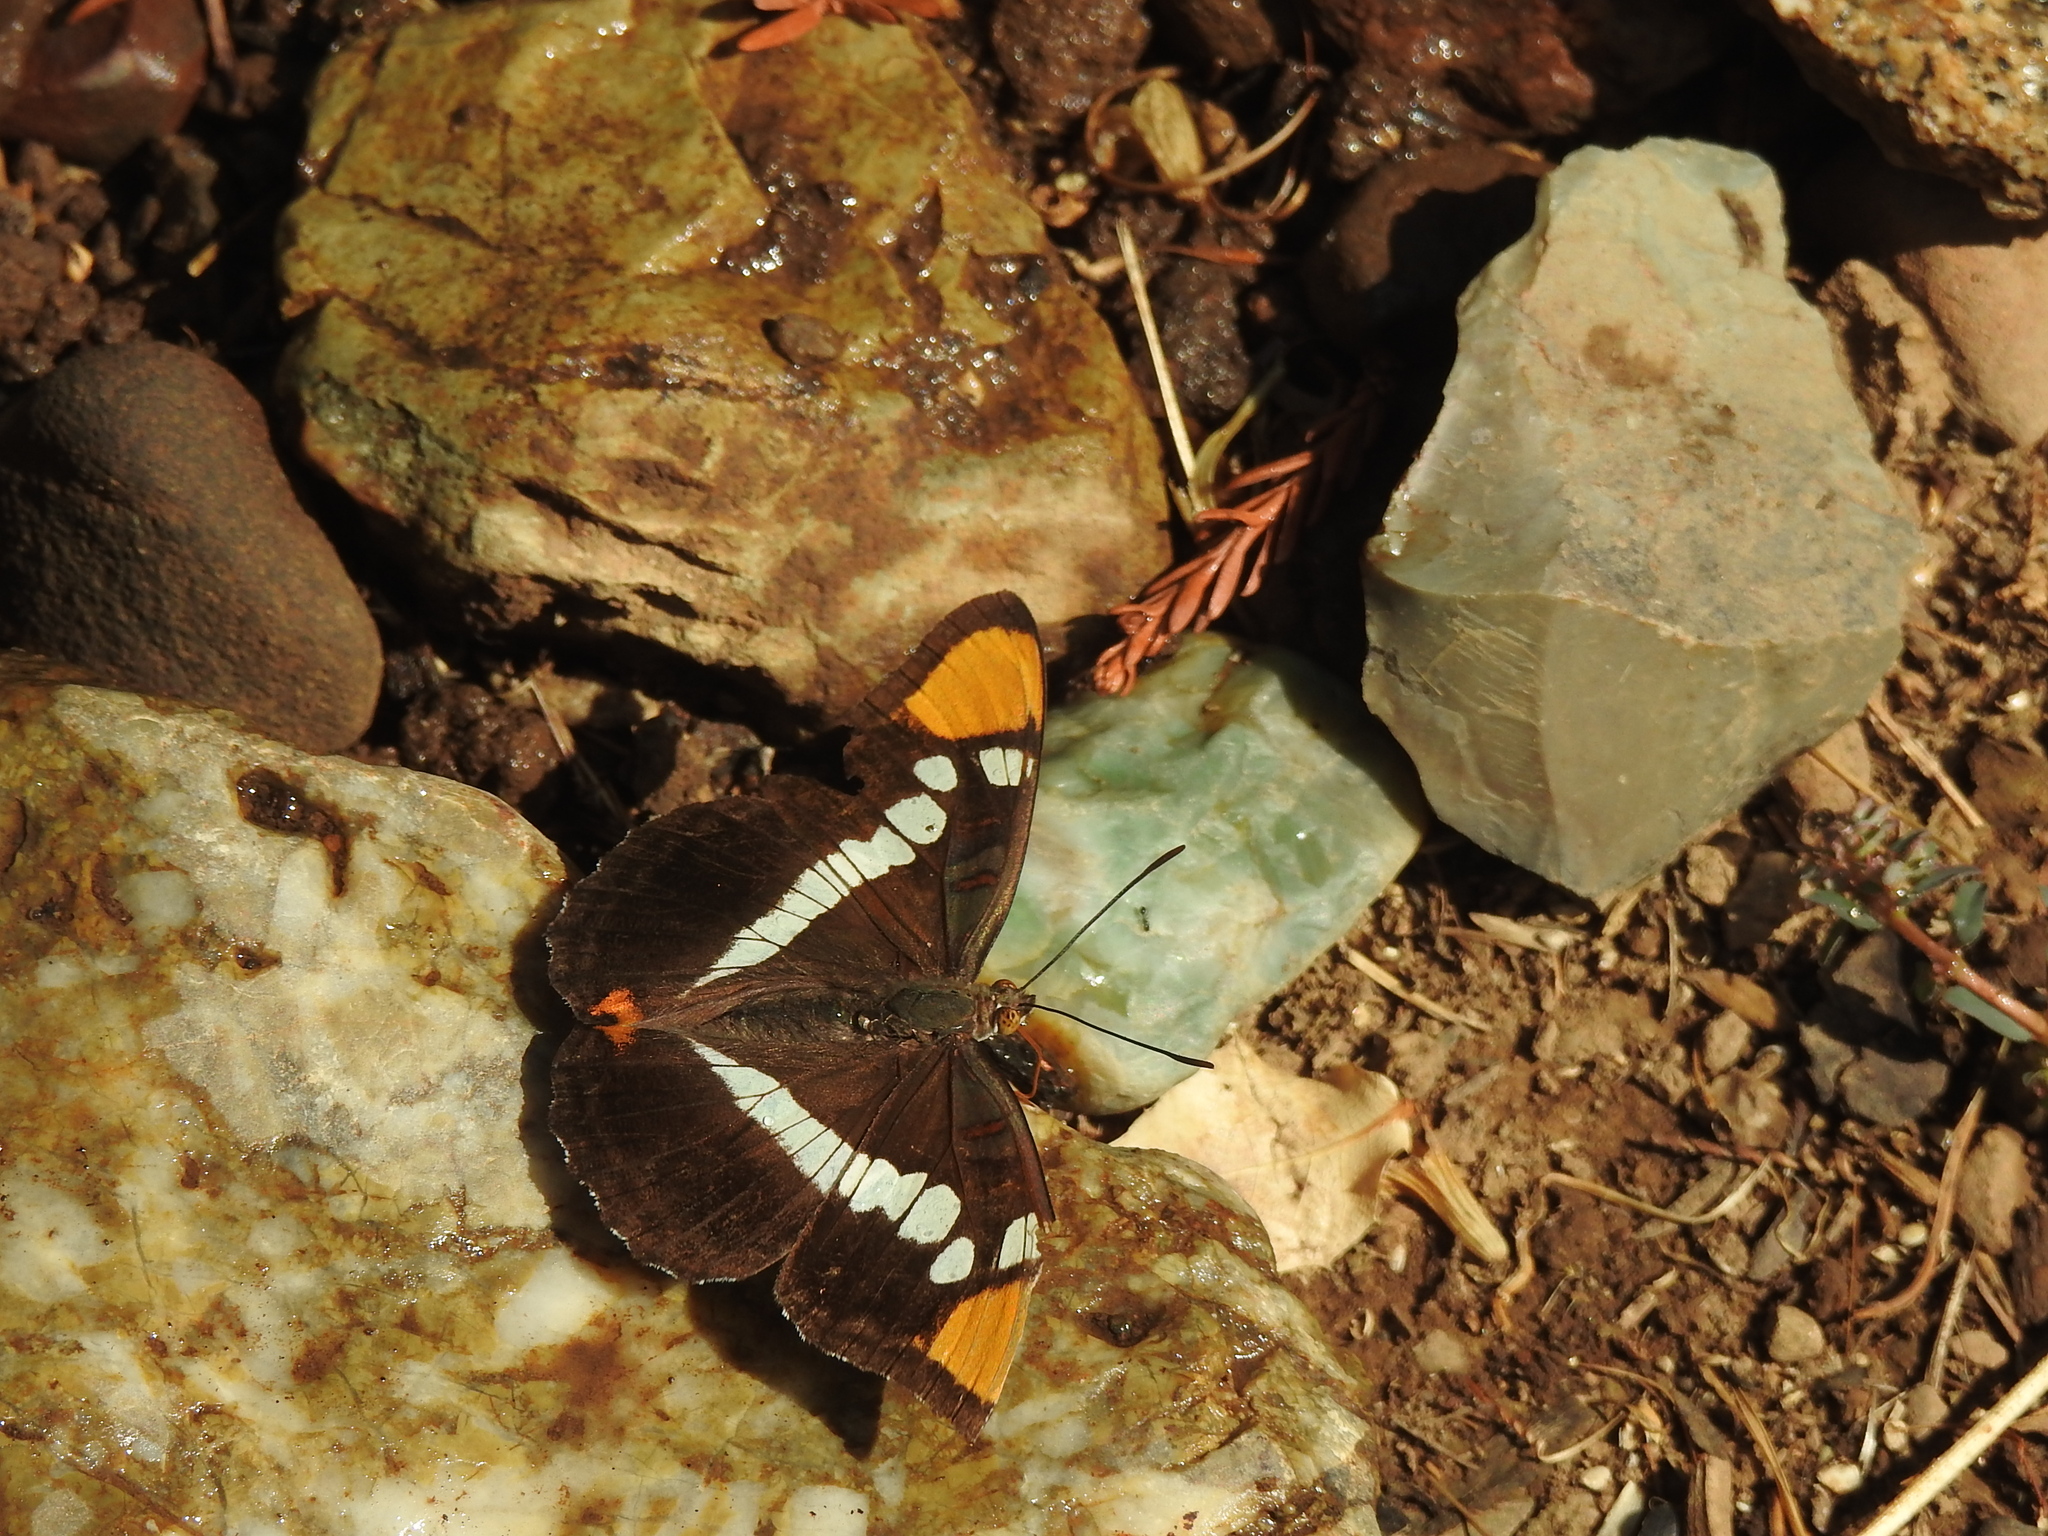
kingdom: Animalia
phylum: Arthropoda
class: Insecta
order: Lepidoptera
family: Nymphalidae
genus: Limenitis
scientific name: Limenitis bredowii
